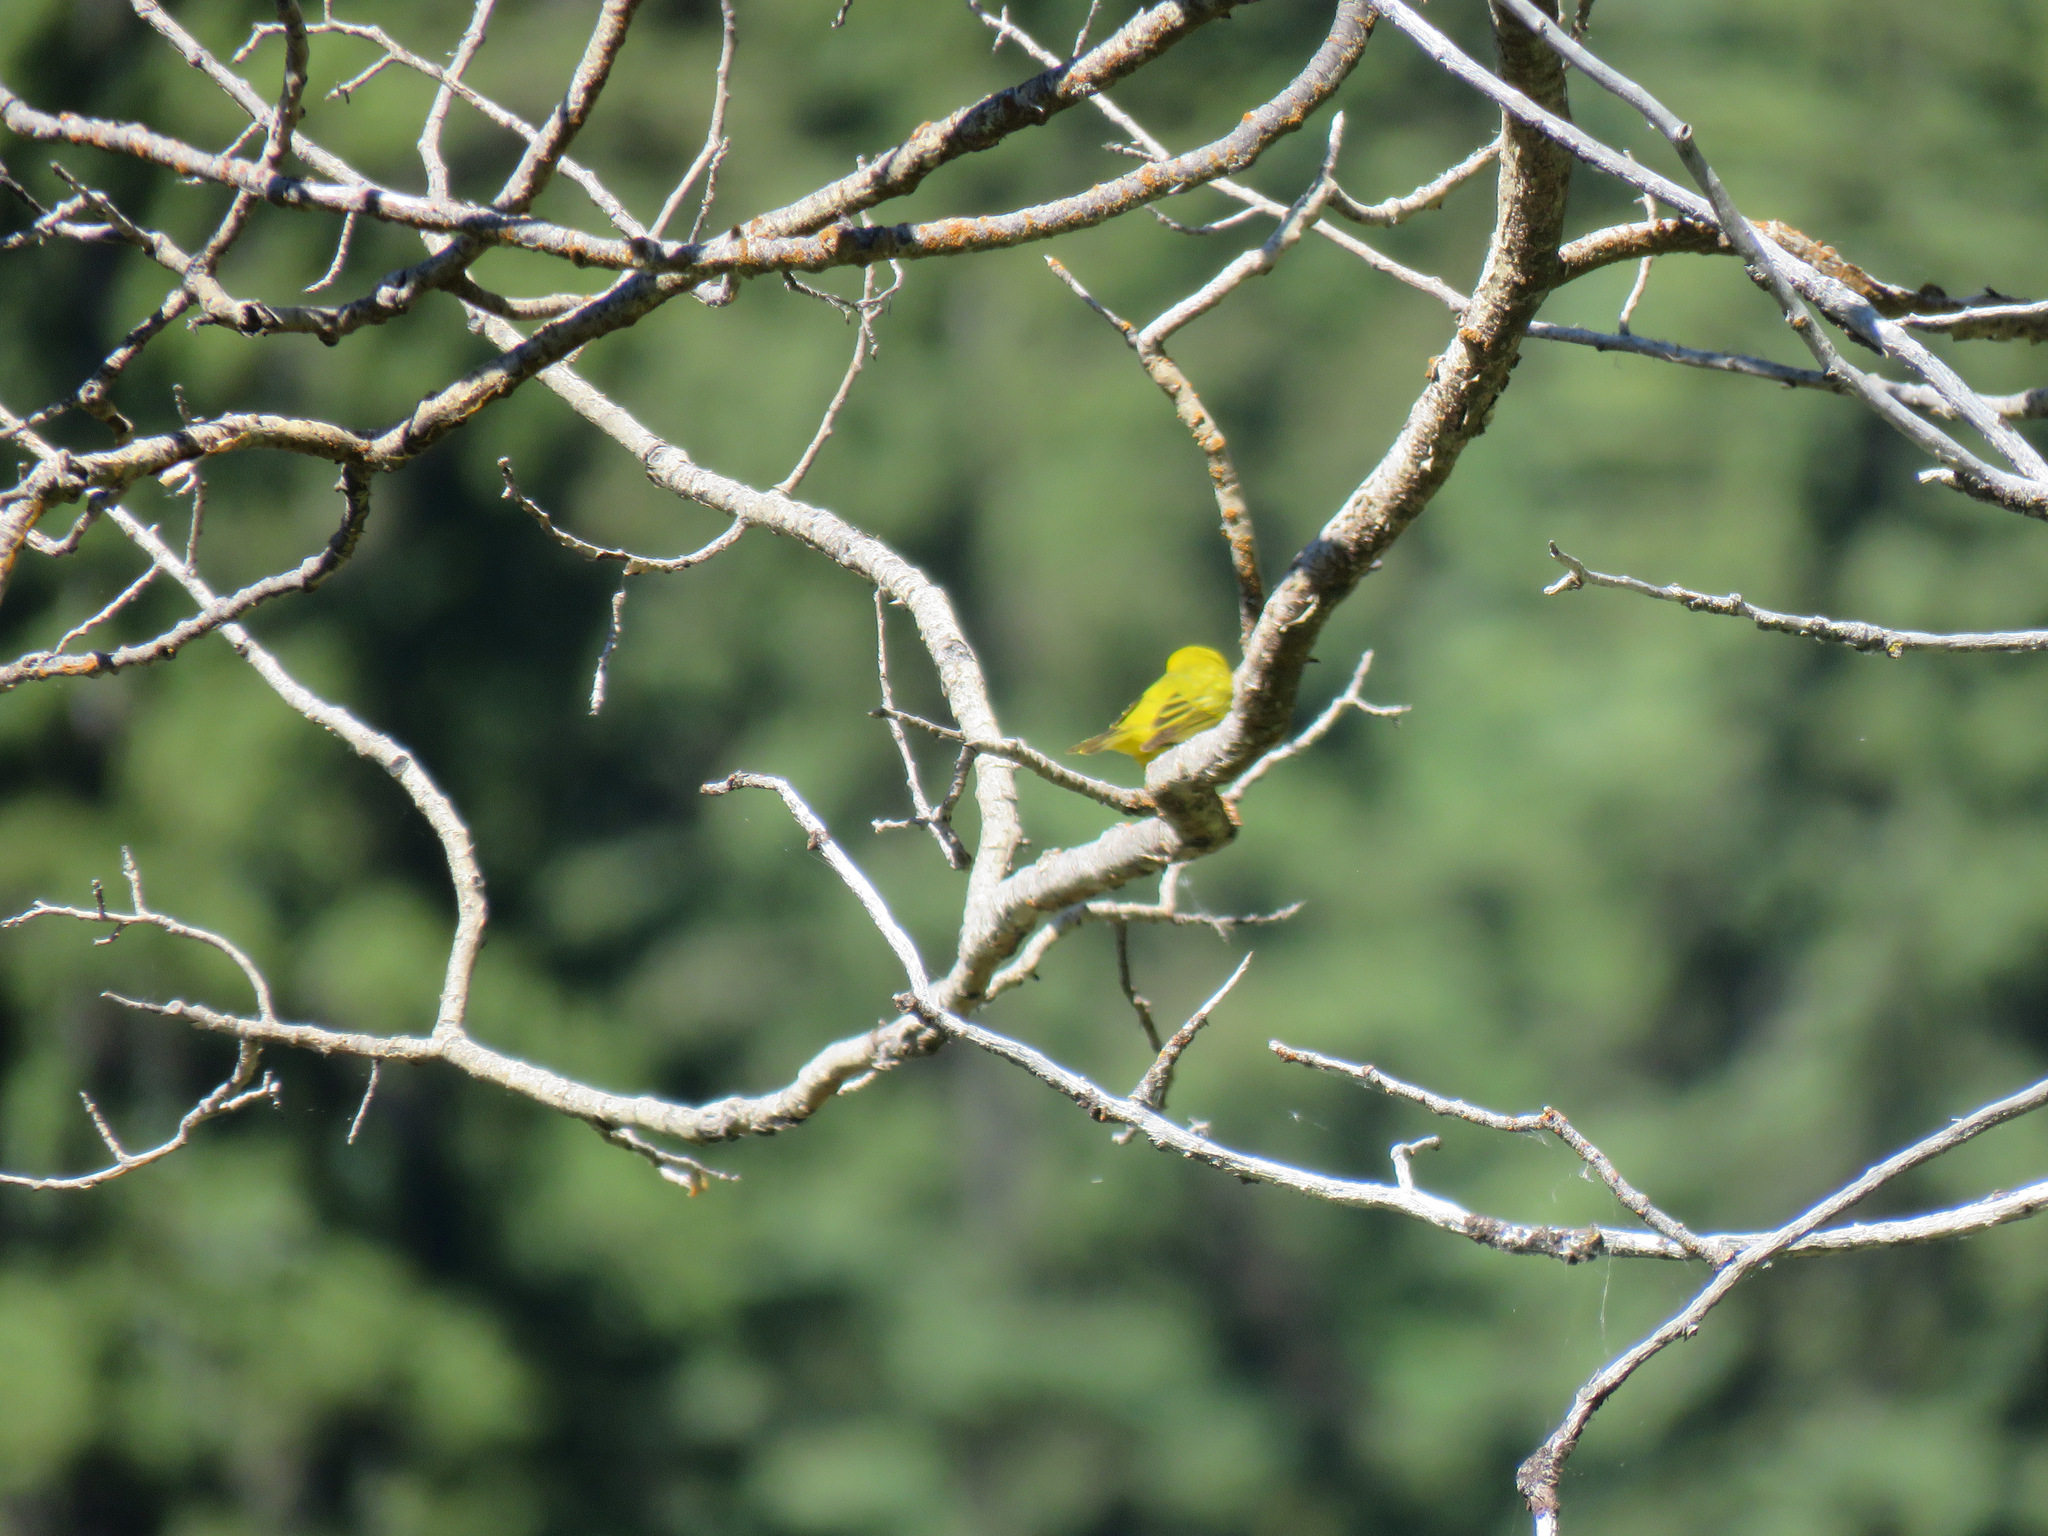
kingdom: Animalia
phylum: Chordata
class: Aves
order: Passeriformes
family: Parulidae
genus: Setophaga
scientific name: Setophaga petechia
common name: Yellow warbler
